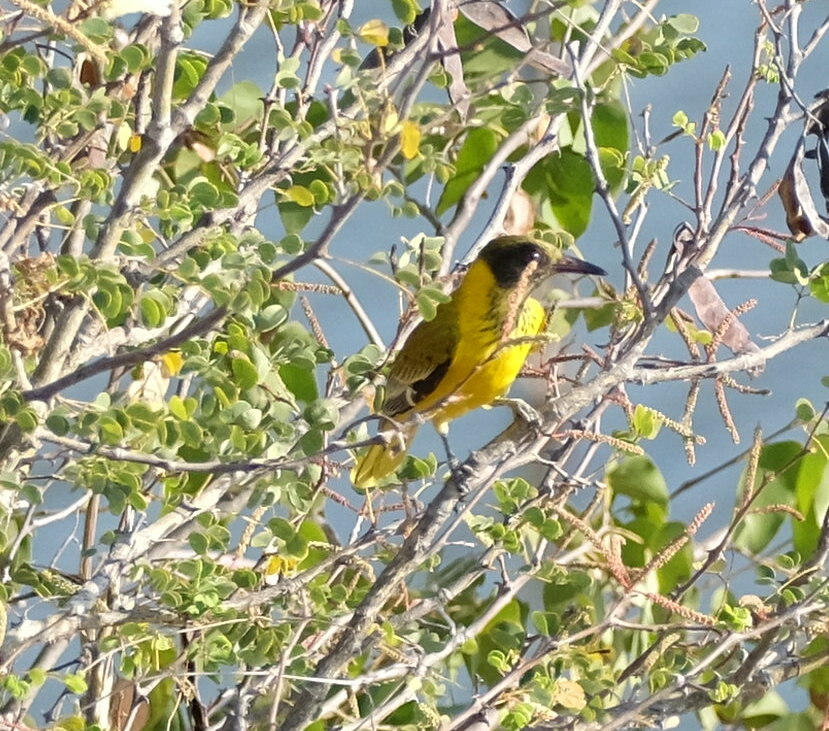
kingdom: Animalia
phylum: Chordata
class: Aves
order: Passeriformes
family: Oriolidae
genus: Oriolus
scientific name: Oriolus larvatus
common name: Black-headed oriole
